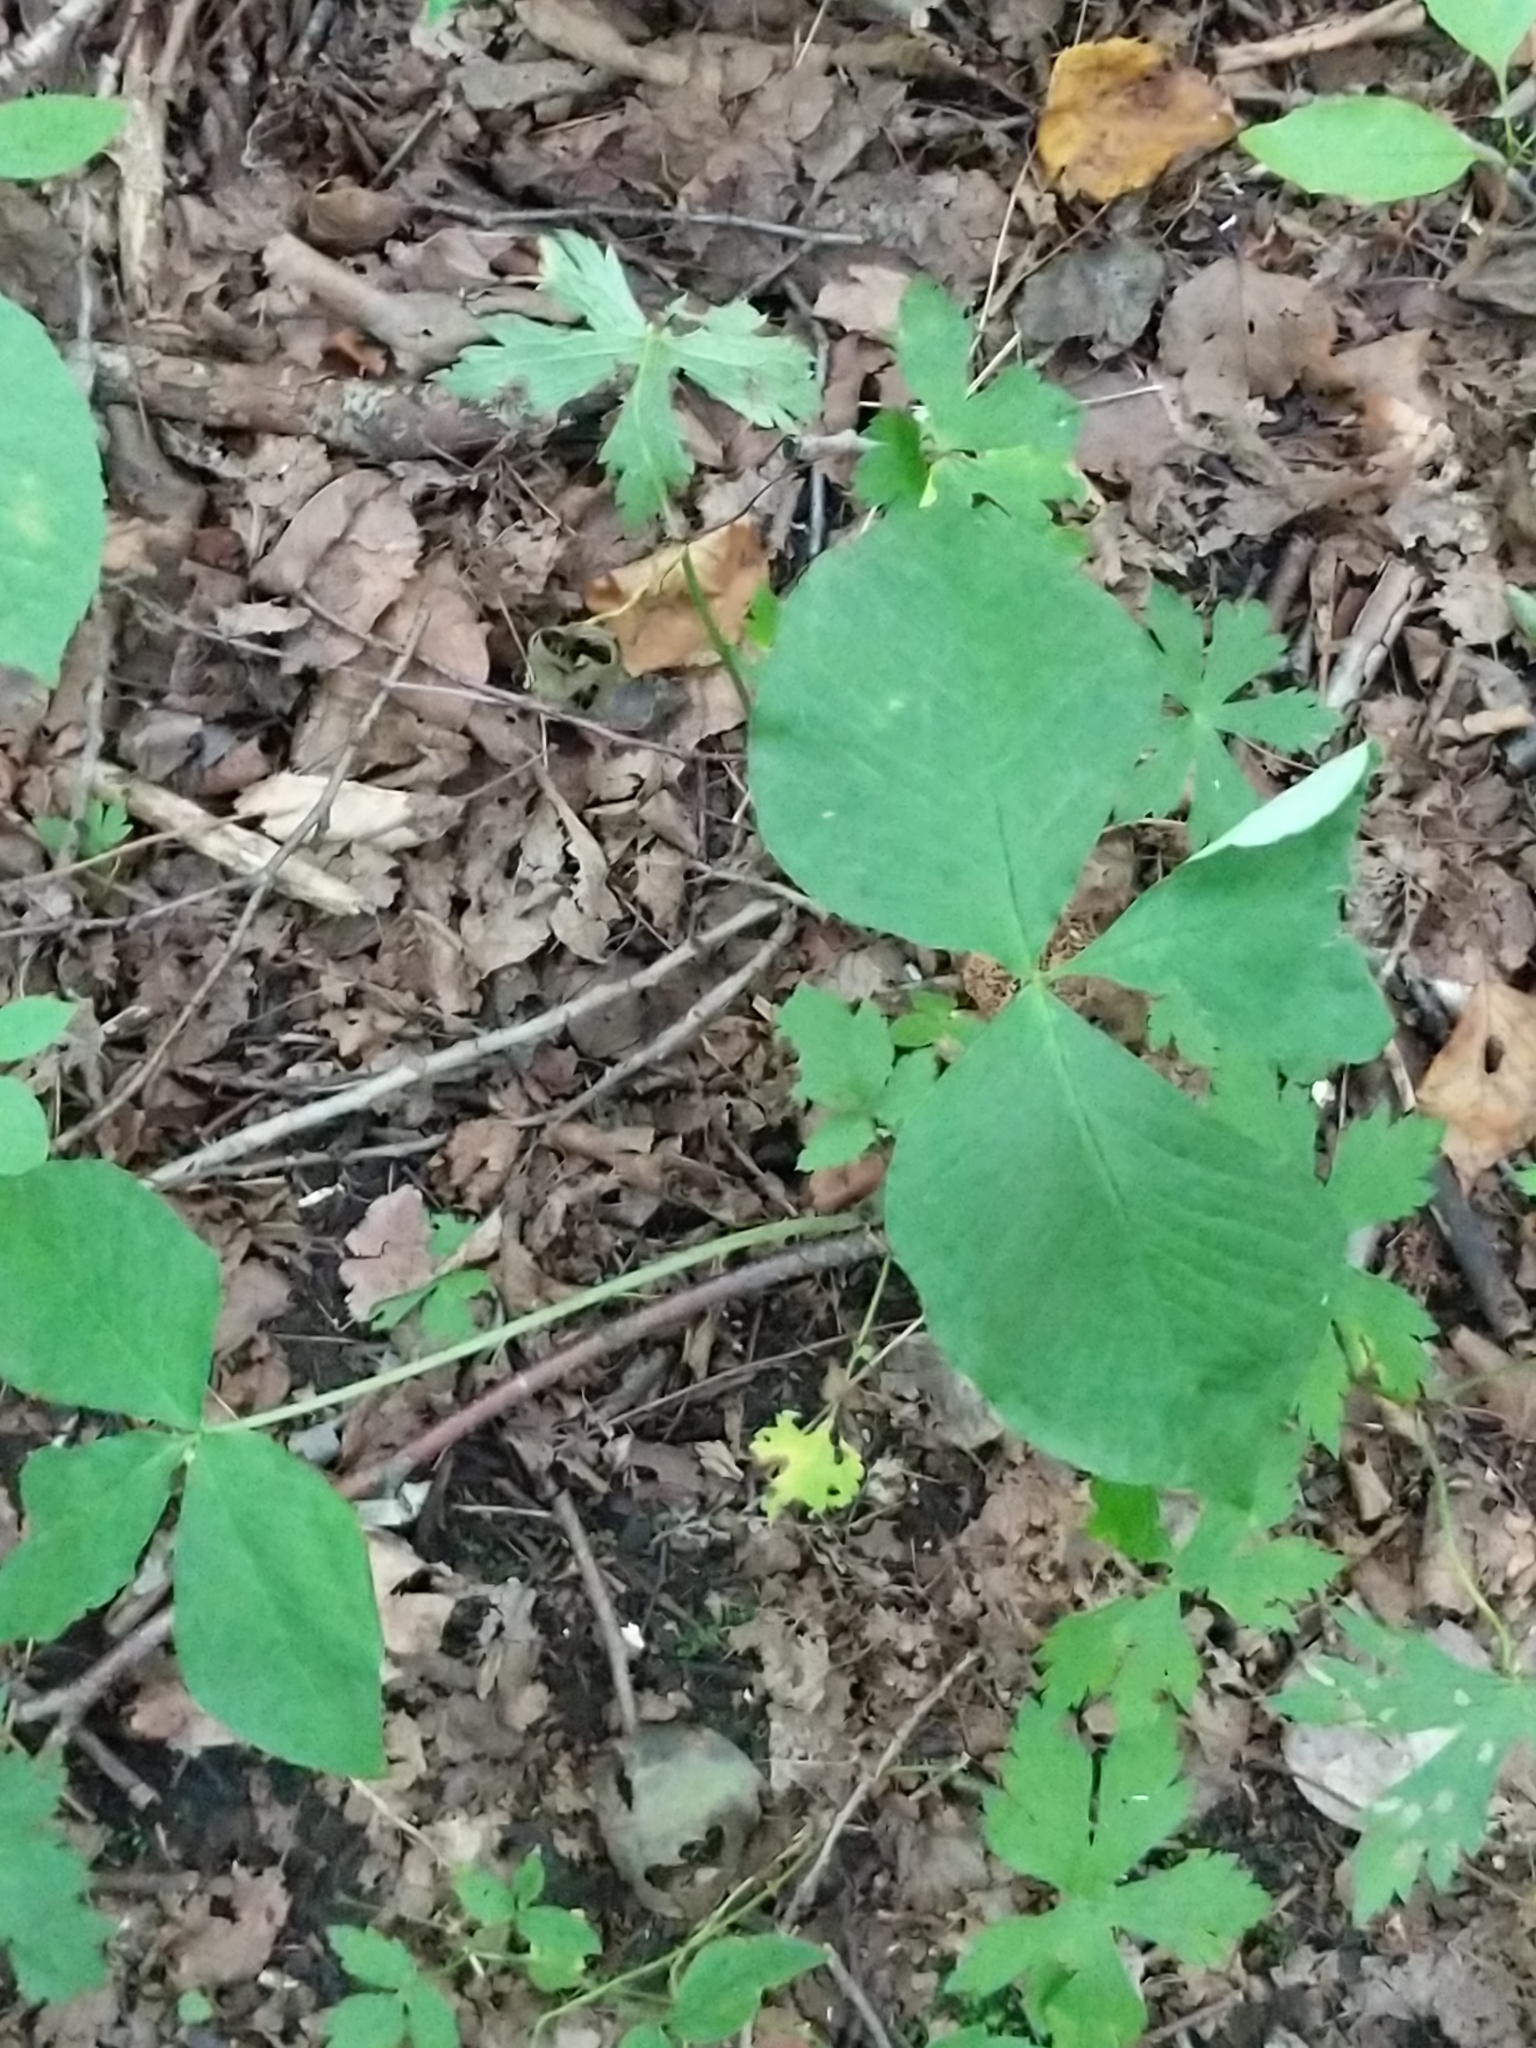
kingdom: Plantae
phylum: Tracheophyta
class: Liliopsida
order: Alismatales
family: Araceae
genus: Arisaema
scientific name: Arisaema triphyllum
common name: Jack-in-the-pulpit
